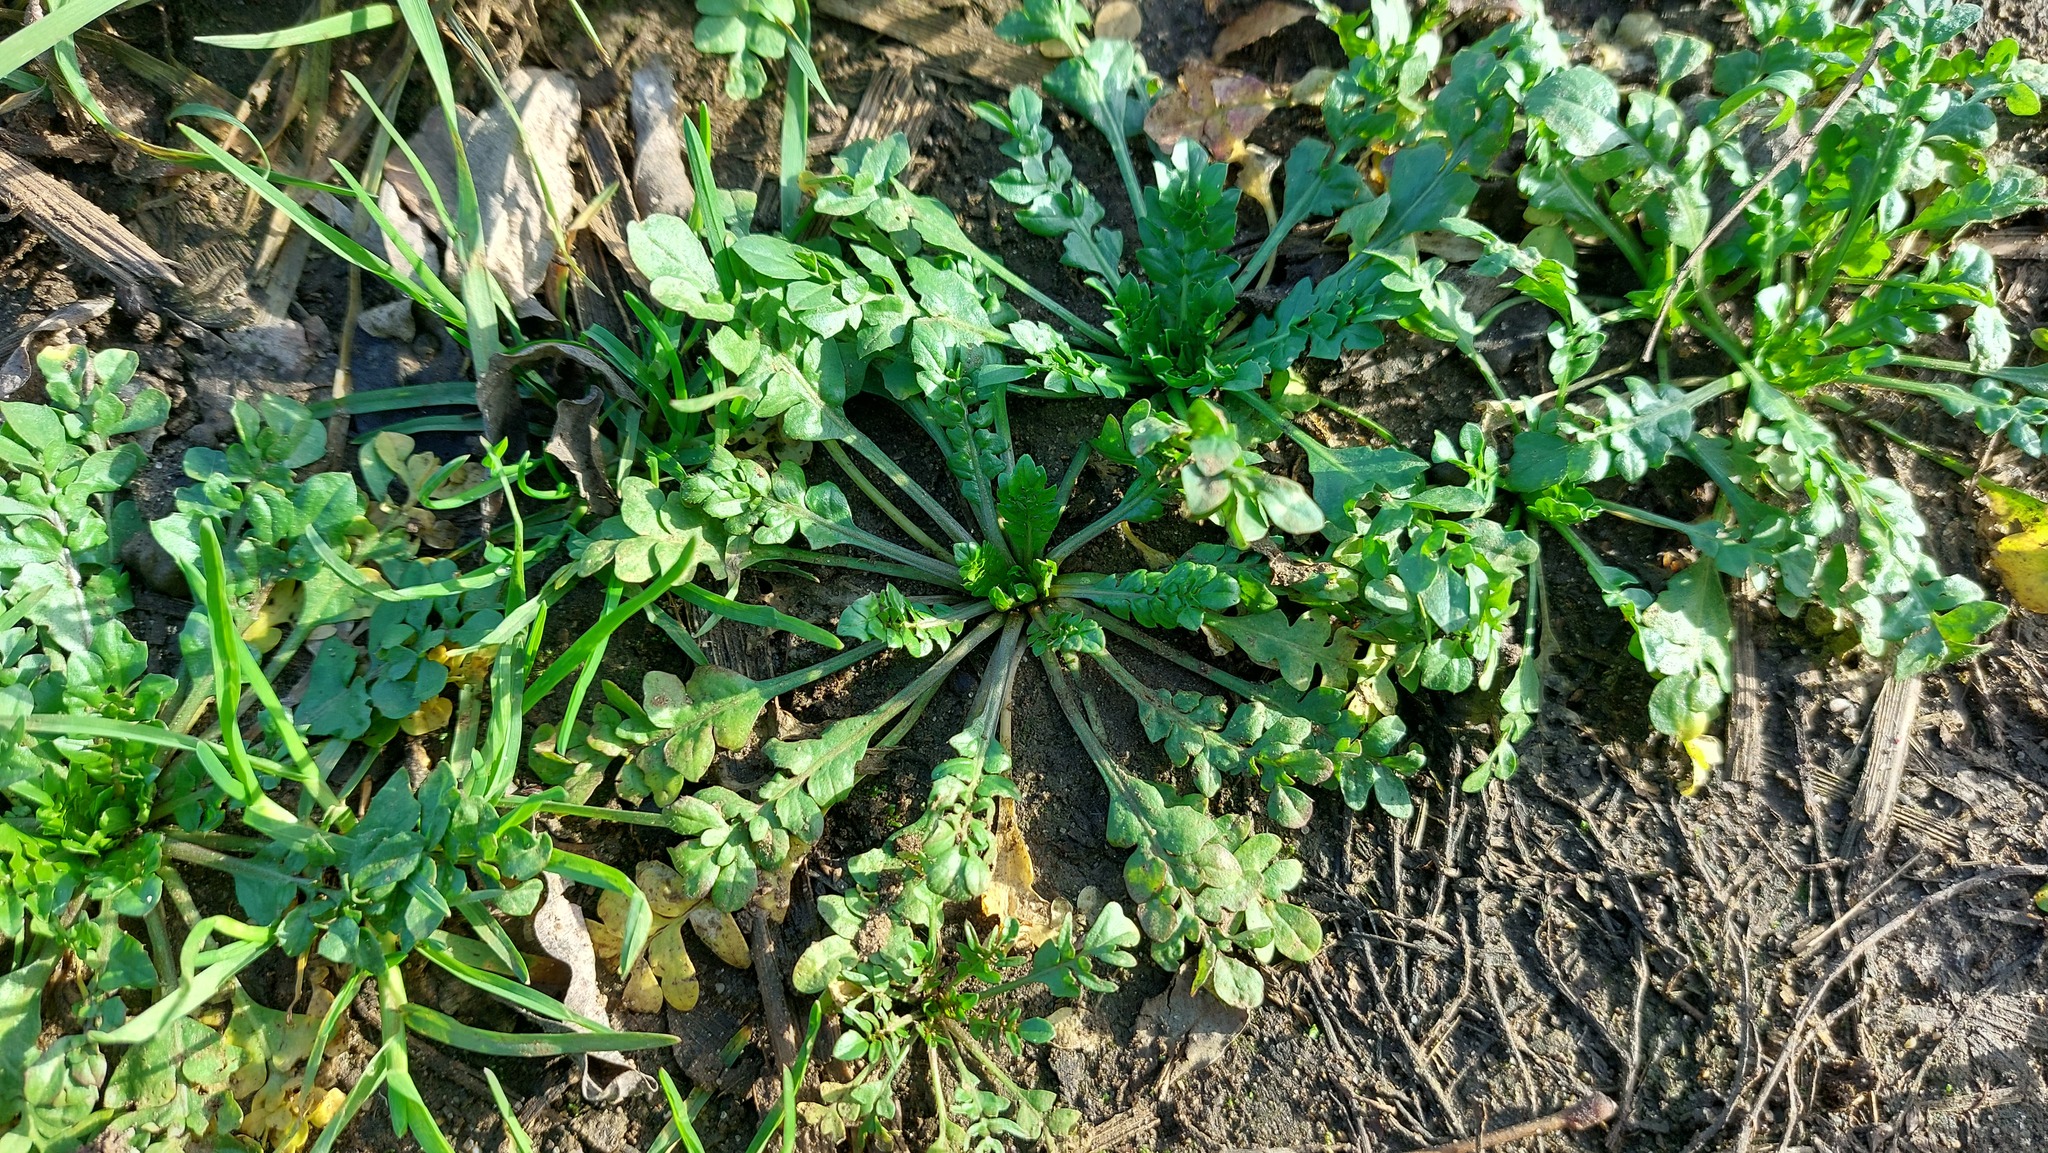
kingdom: Plantae
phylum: Tracheophyta
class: Magnoliopsida
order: Brassicales
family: Brassicaceae
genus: Capsella
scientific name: Capsella bursa-pastoris
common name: Shepherd's purse
